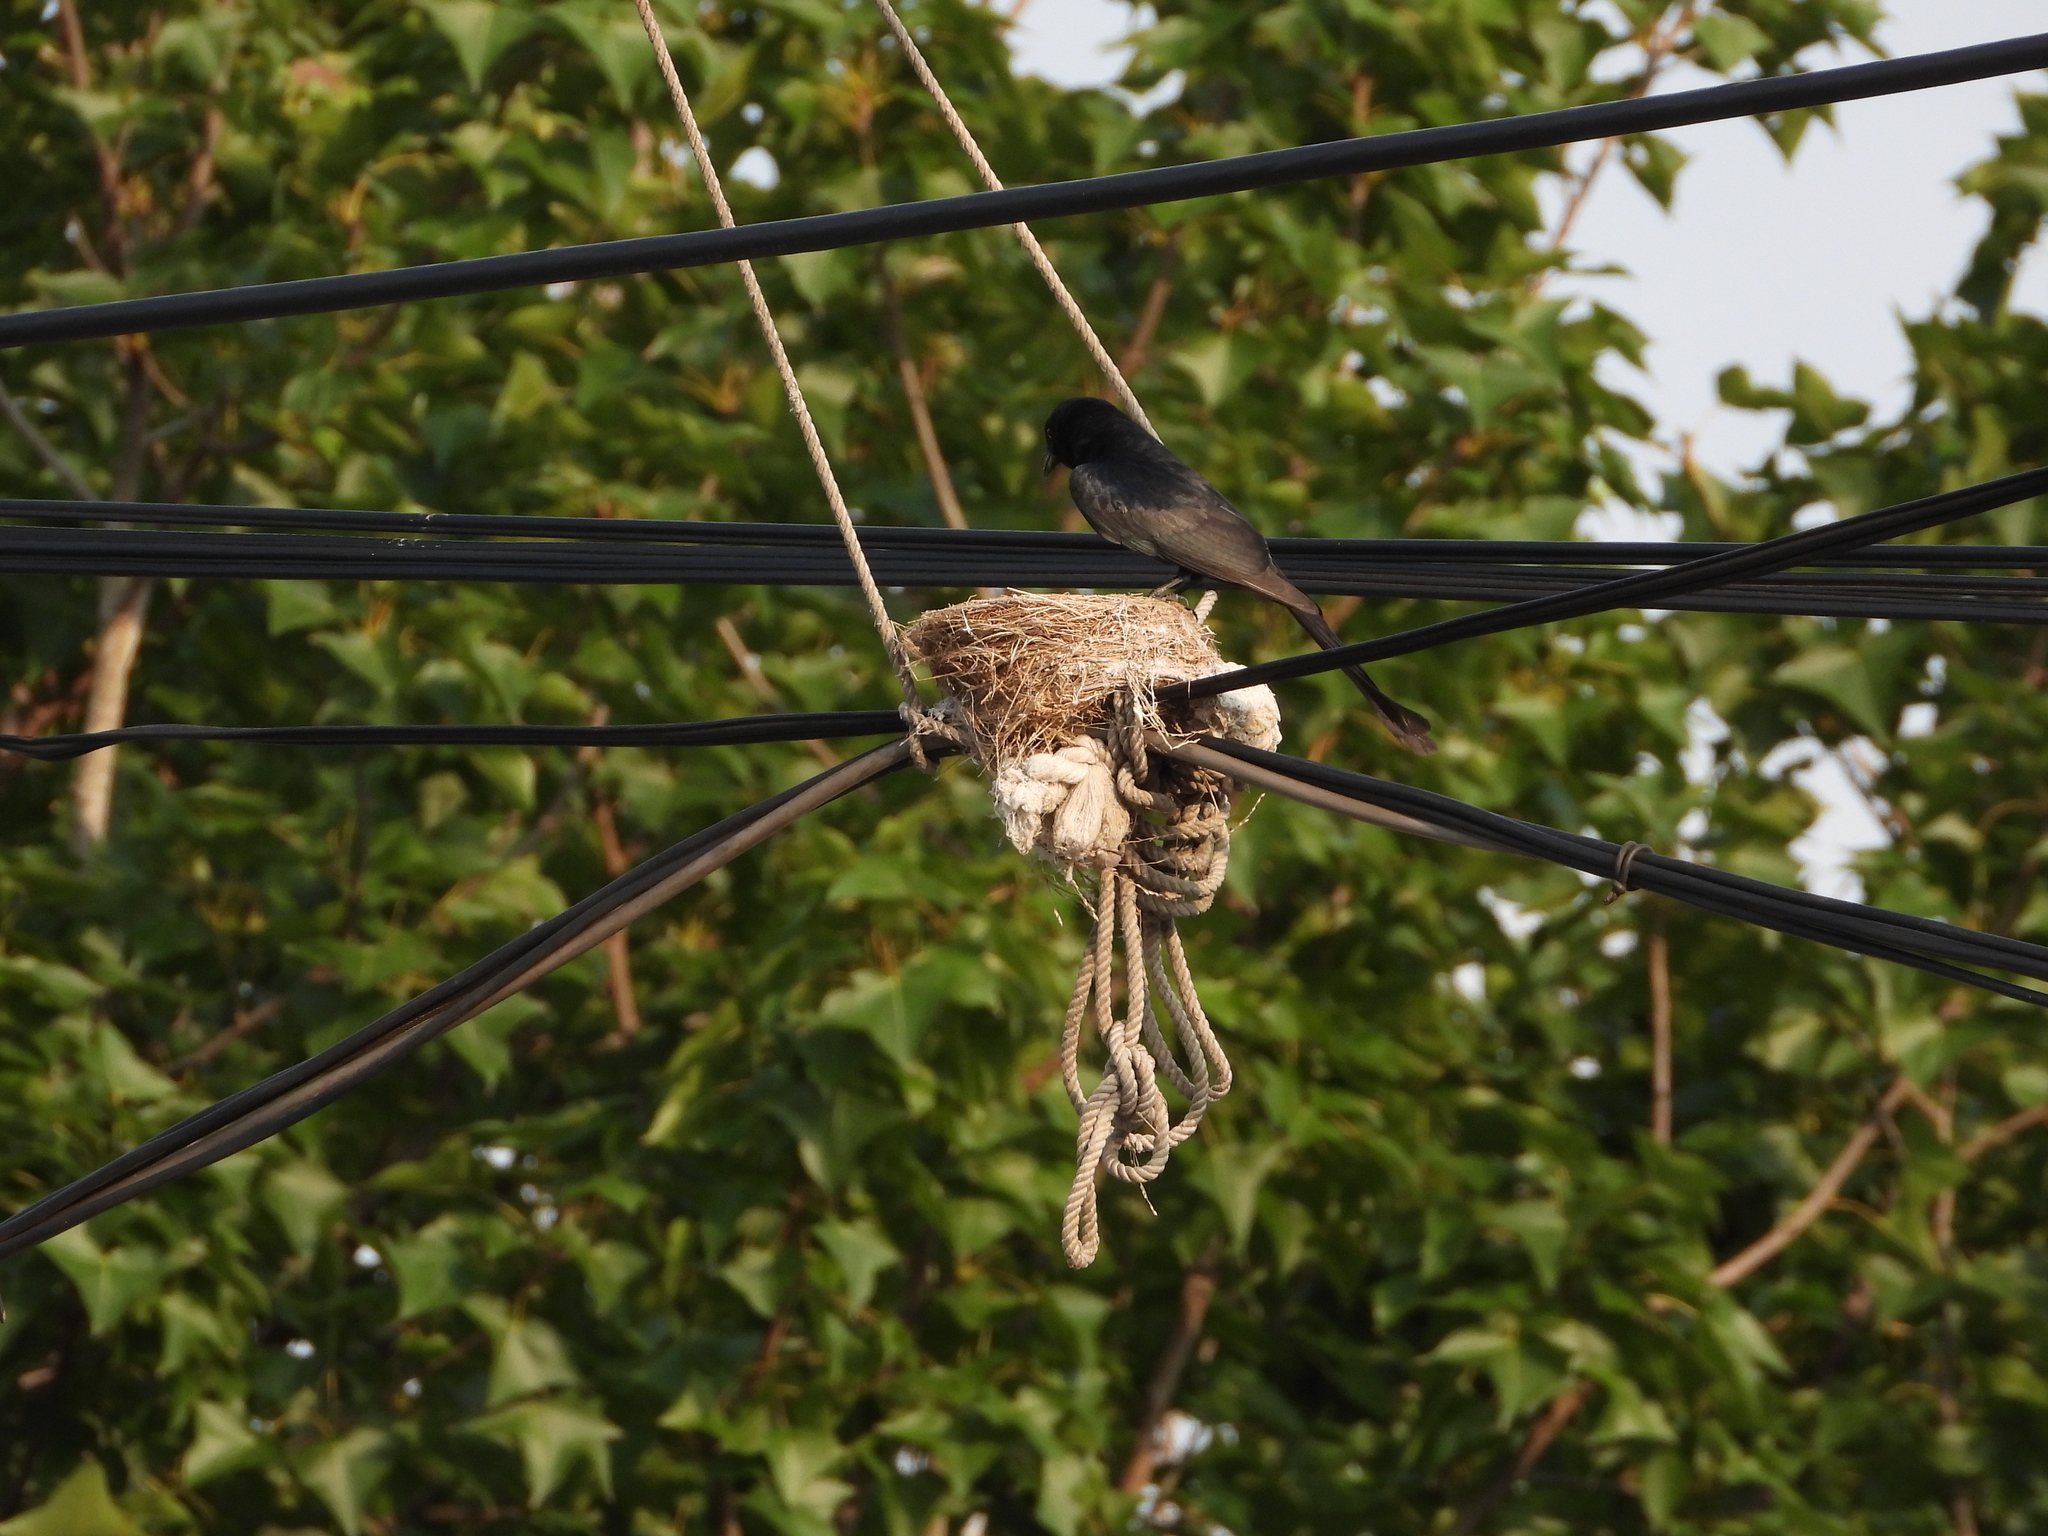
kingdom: Animalia
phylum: Chordata
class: Aves
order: Passeriformes
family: Dicruridae
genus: Dicrurus
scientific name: Dicrurus macrocercus
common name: Black drongo
